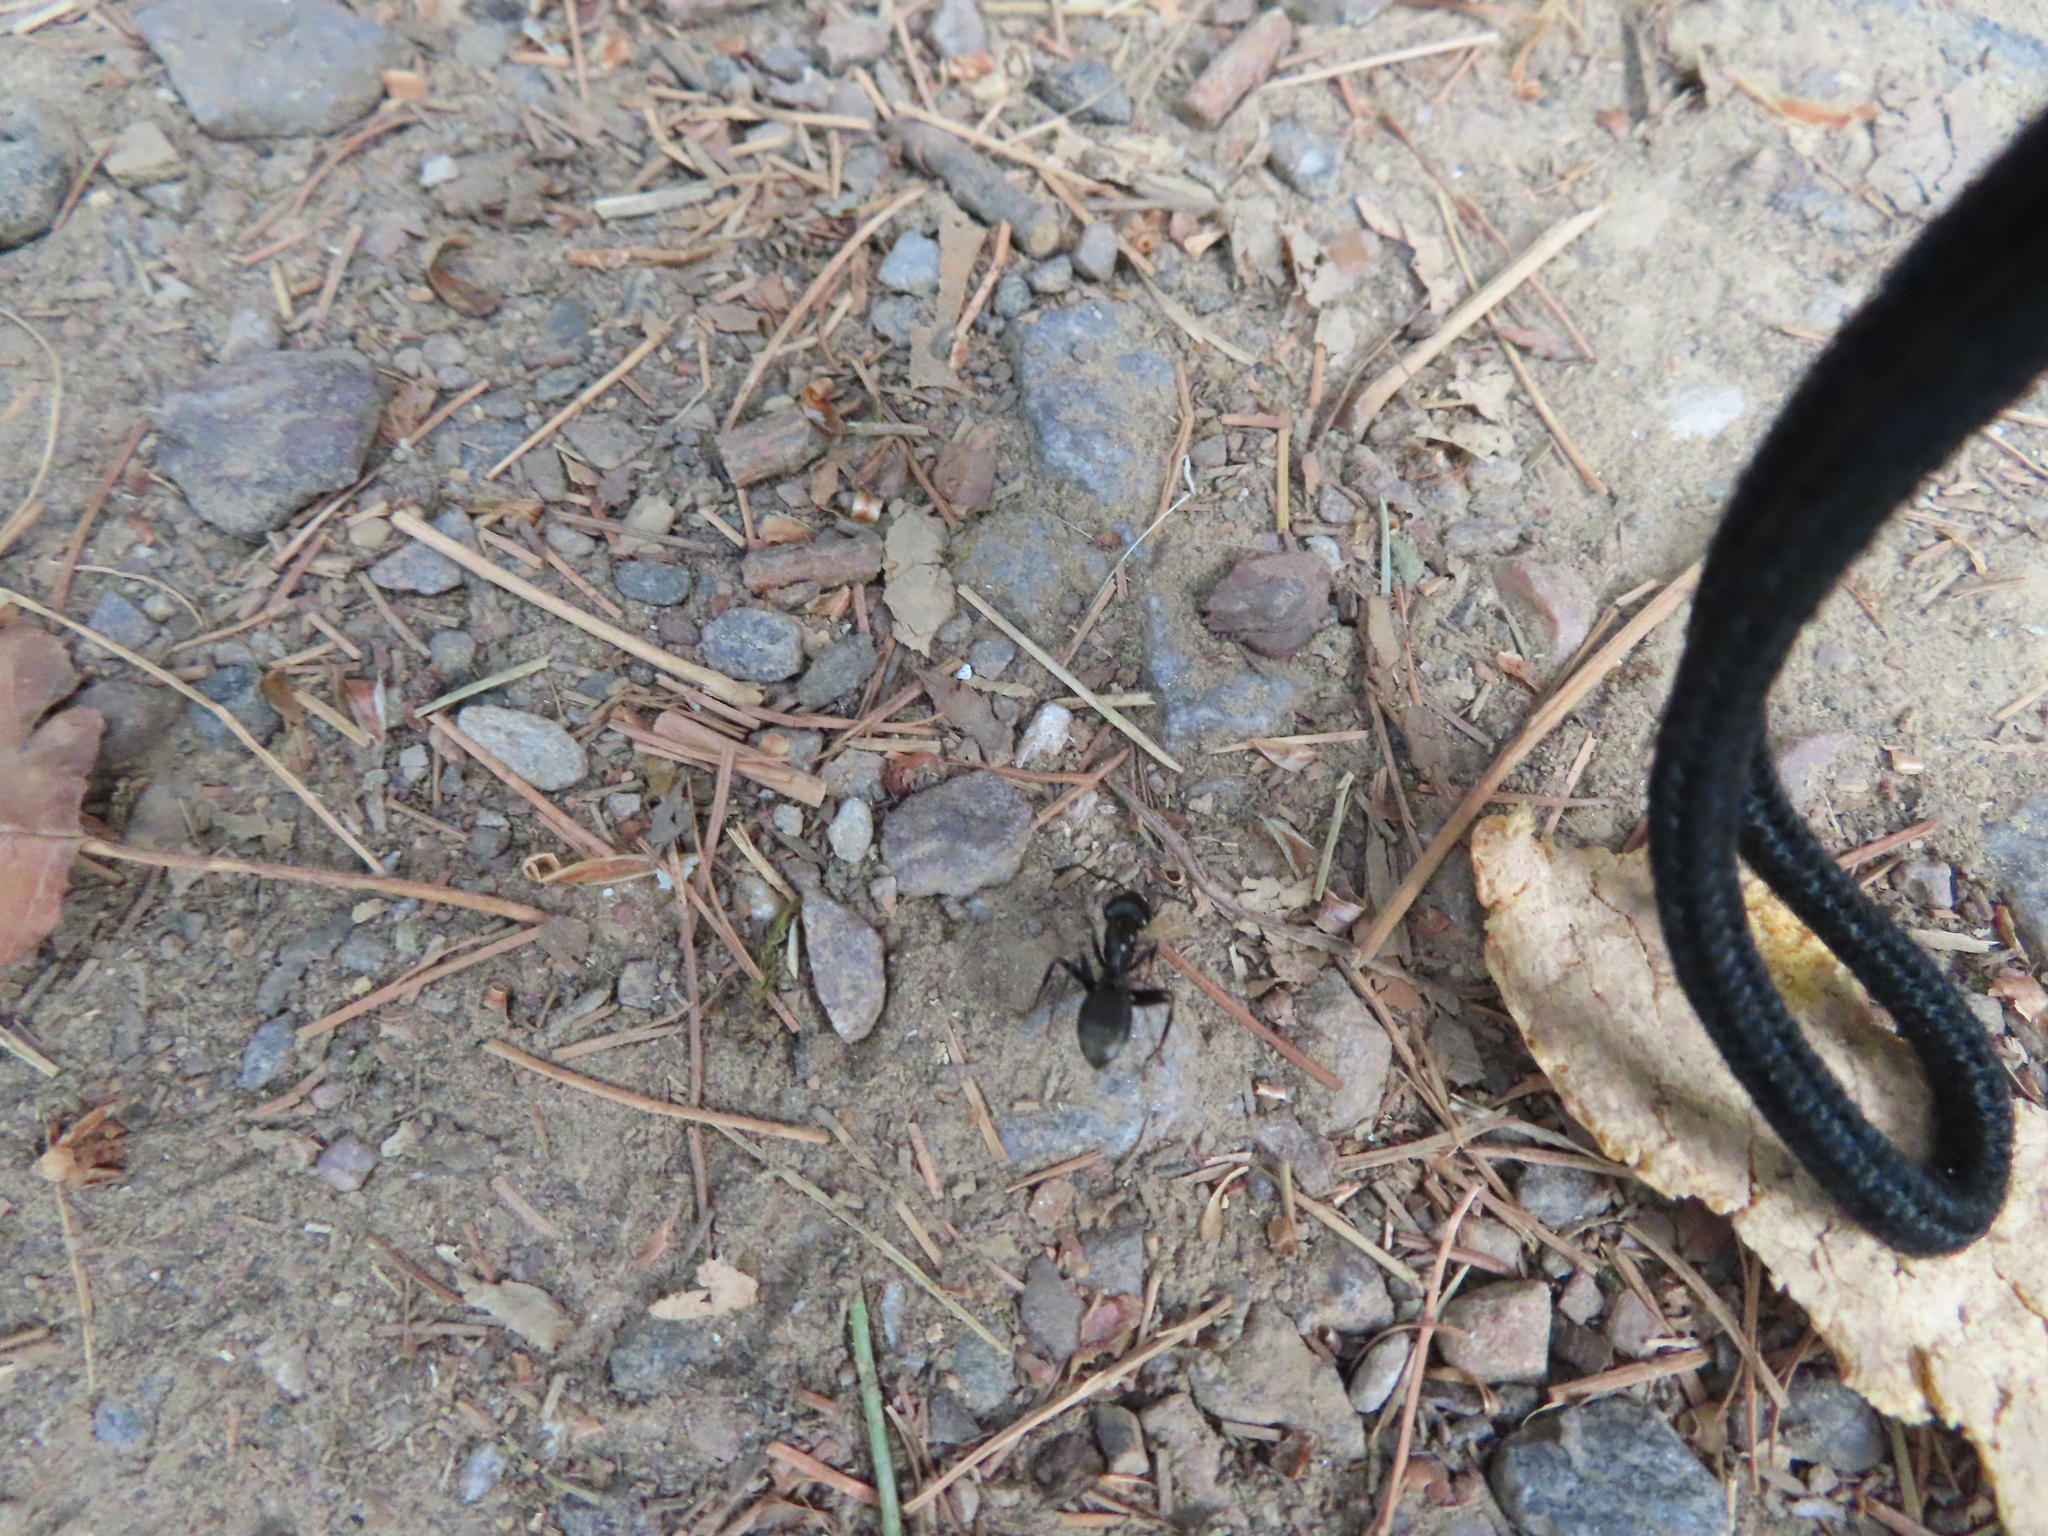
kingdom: Animalia
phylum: Arthropoda
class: Insecta
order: Hymenoptera
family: Formicidae
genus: Camponotus
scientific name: Camponotus pennsylvanicus
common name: Black carpenter ant
